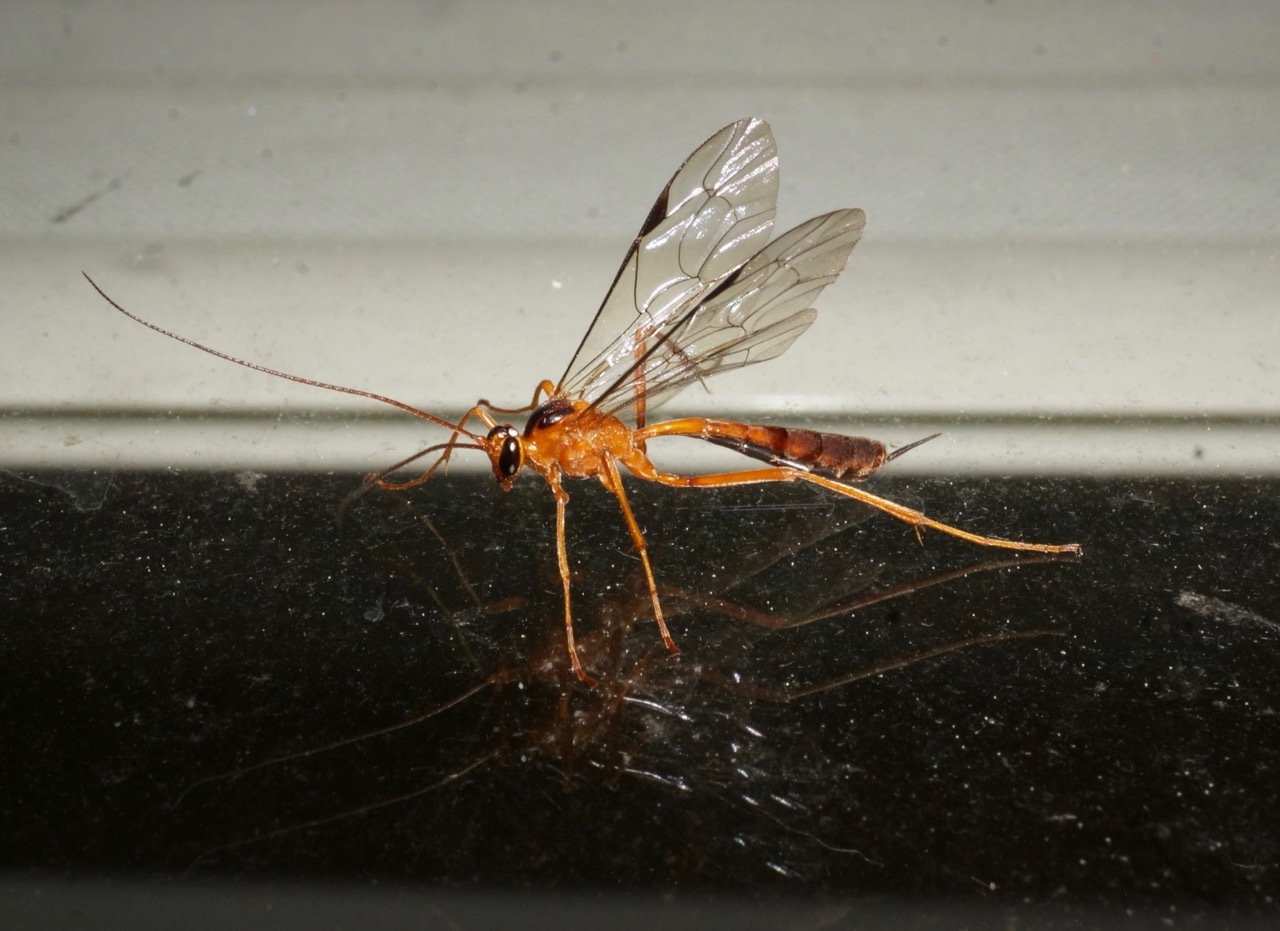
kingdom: Animalia
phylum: Arthropoda
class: Insecta
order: Hymenoptera
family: Ichneumonidae
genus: Netelia
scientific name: Netelia ephippiata
